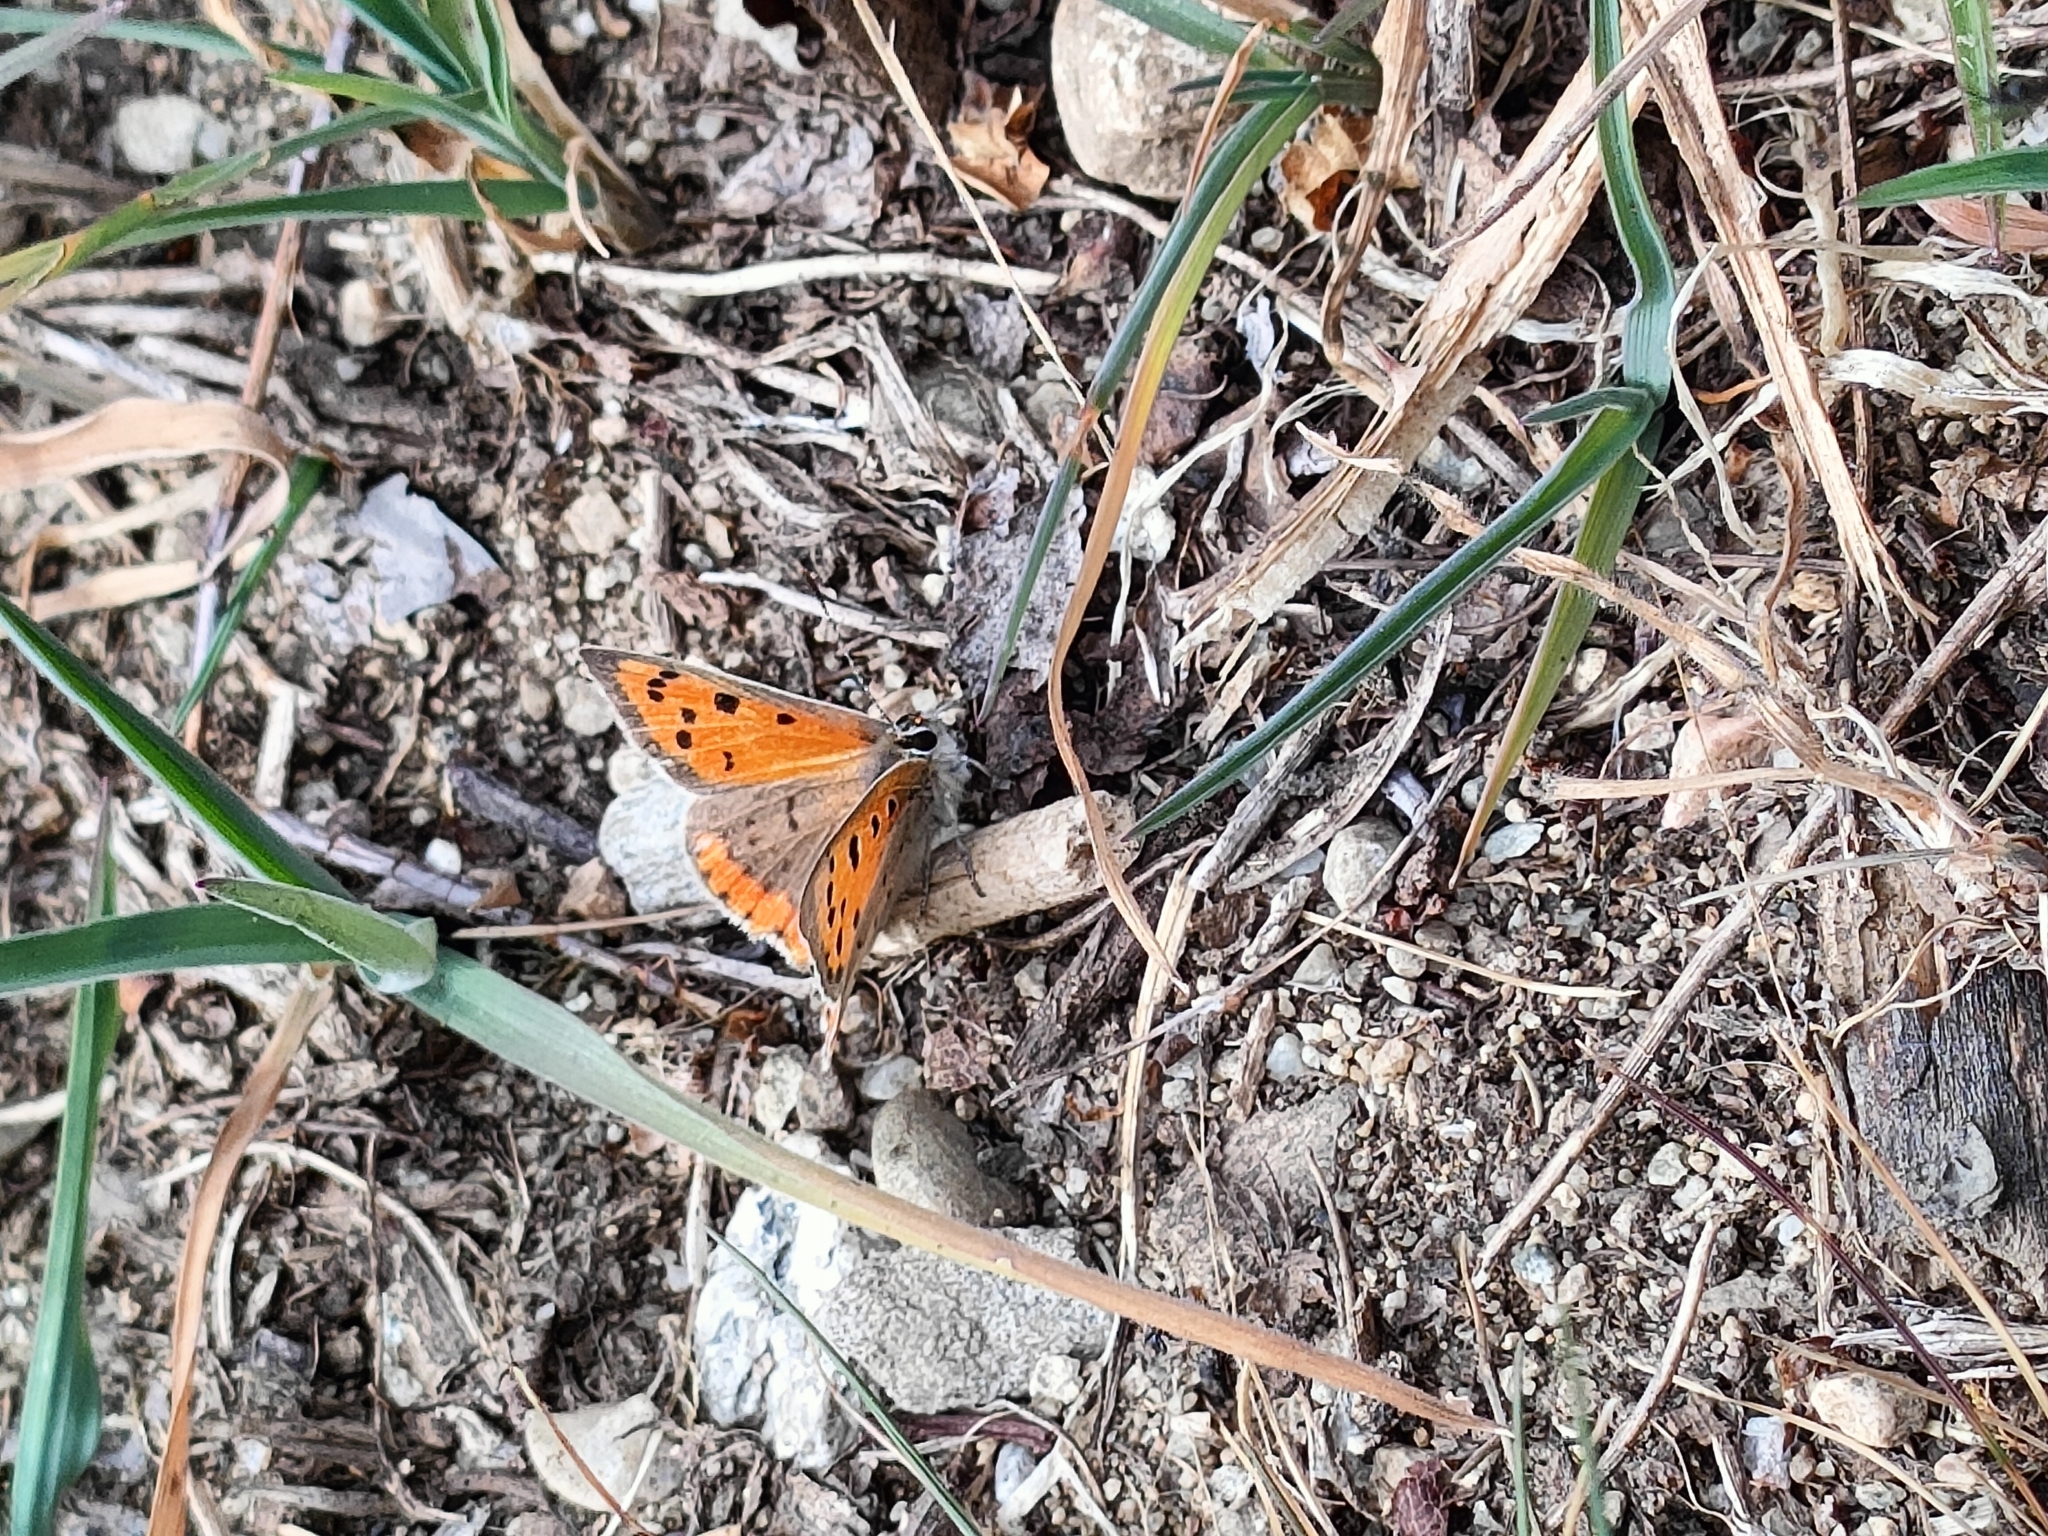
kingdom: Animalia
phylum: Arthropoda
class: Insecta
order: Lepidoptera
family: Lycaenidae
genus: Lycaena
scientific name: Lycaena phlaeas
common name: Small copper
